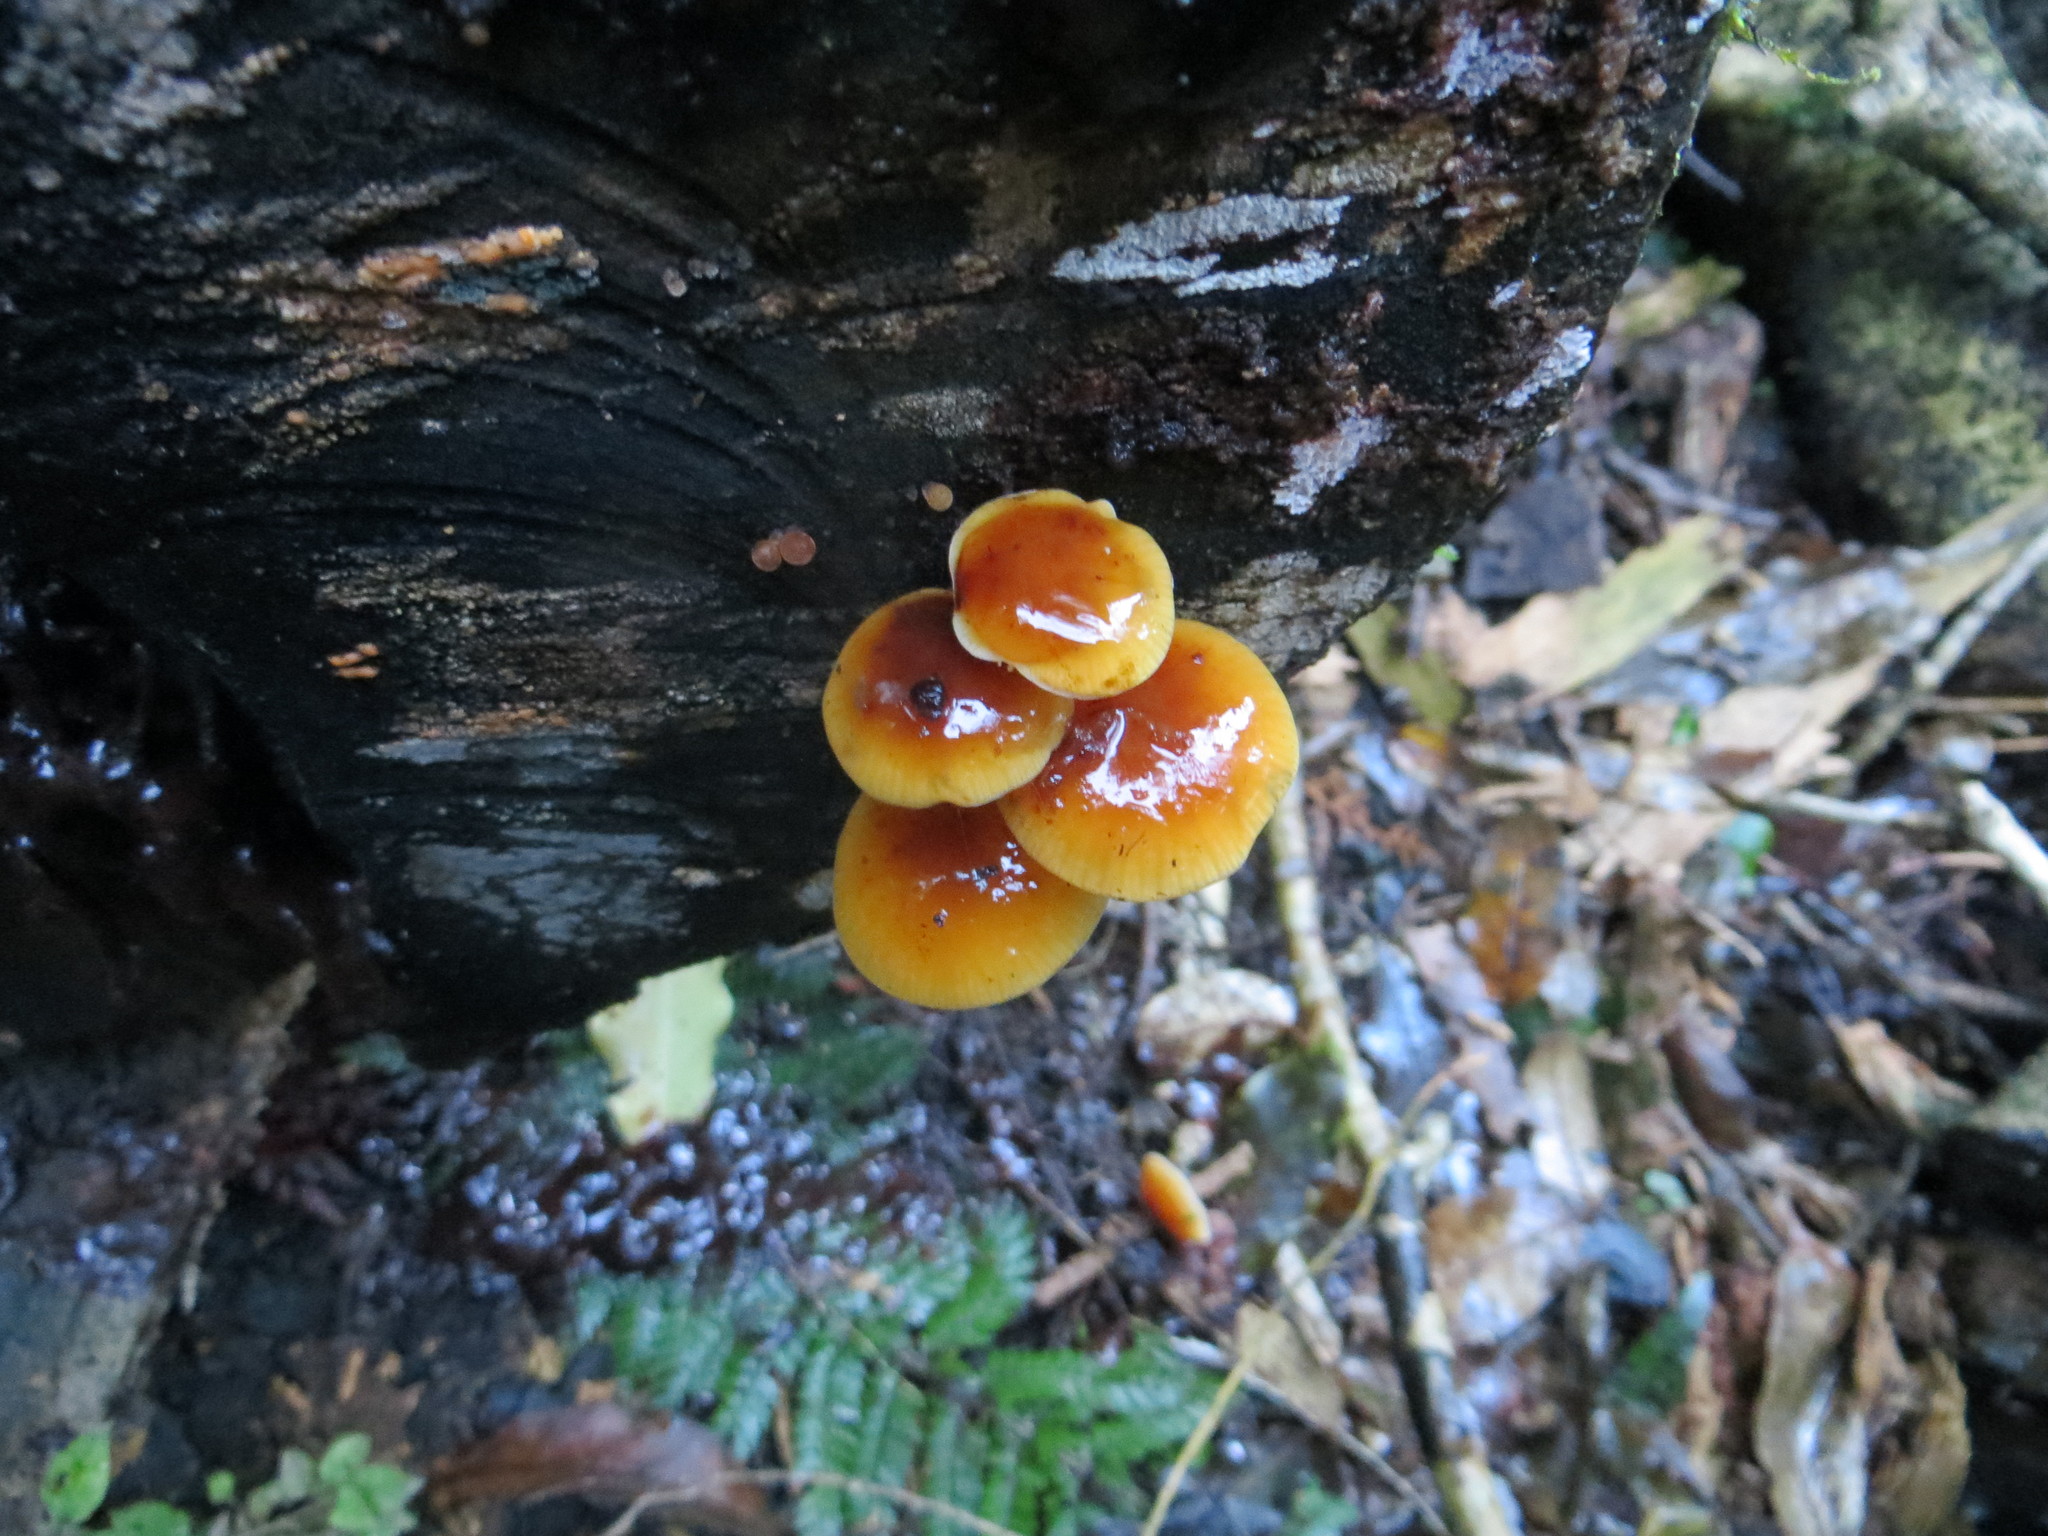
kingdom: Fungi
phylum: Basidiomycota
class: Agaricomycetes
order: Agaricales
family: Physalacriaceae
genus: Flammulina
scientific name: Flammulina velutipes
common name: Velvet shank
